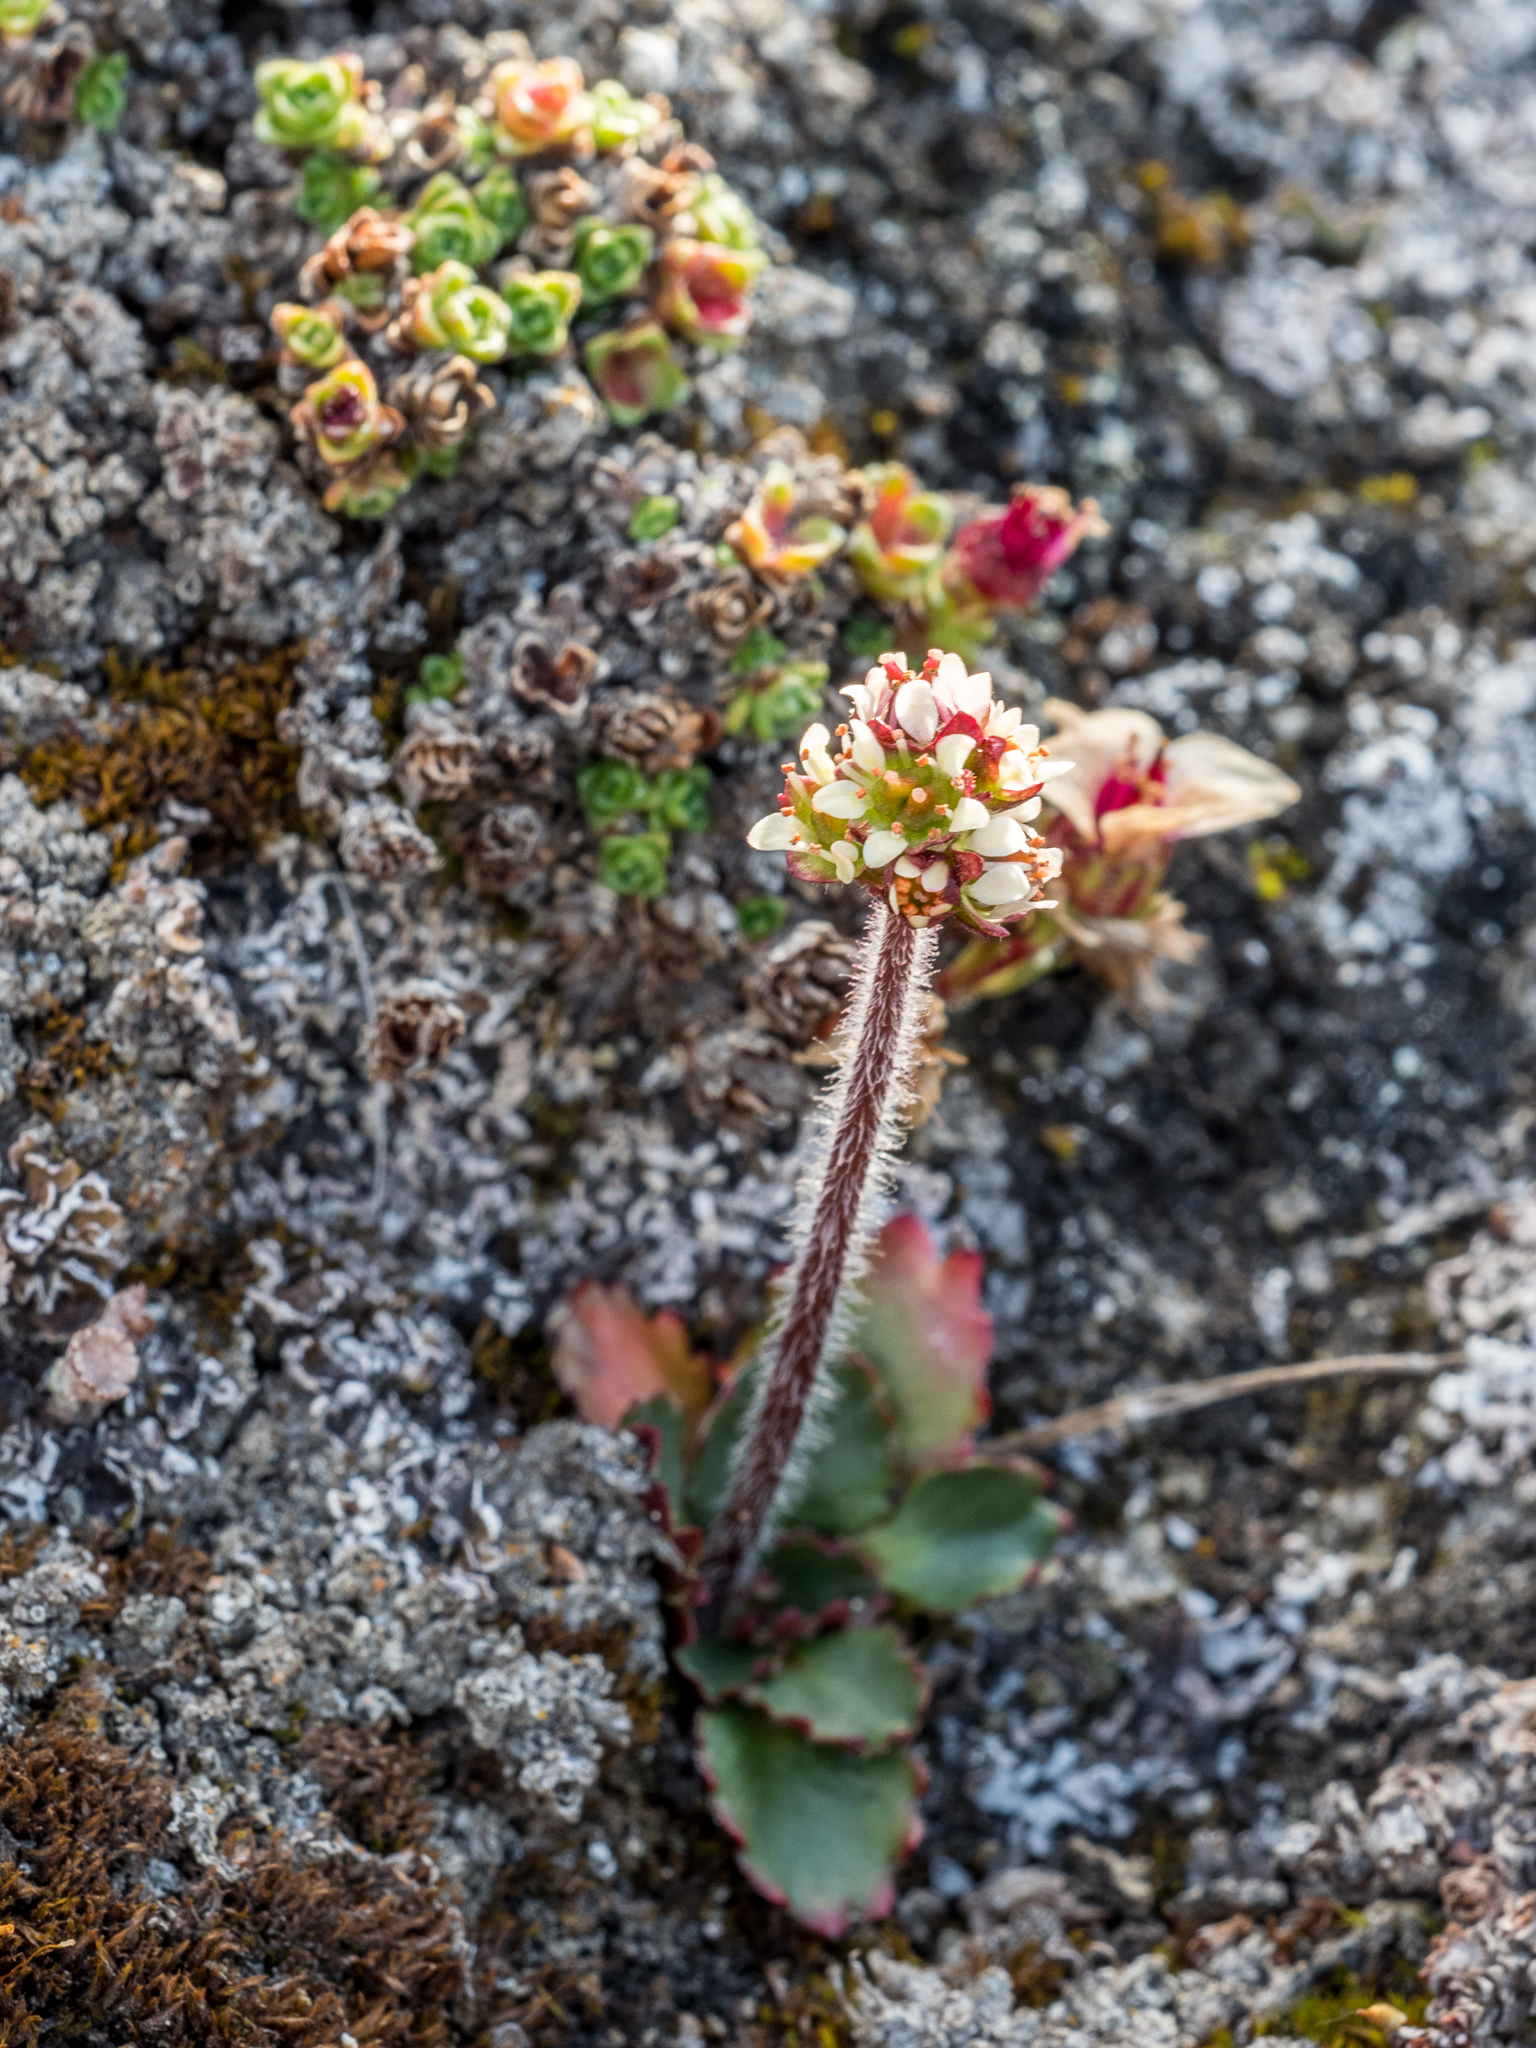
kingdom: Plantae
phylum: Tracheophyta
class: Magnoliopsida
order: Saxifragales
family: Saxifragaceae
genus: Micranthes
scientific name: Micranthes nivalis
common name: Alpine saxifrage
